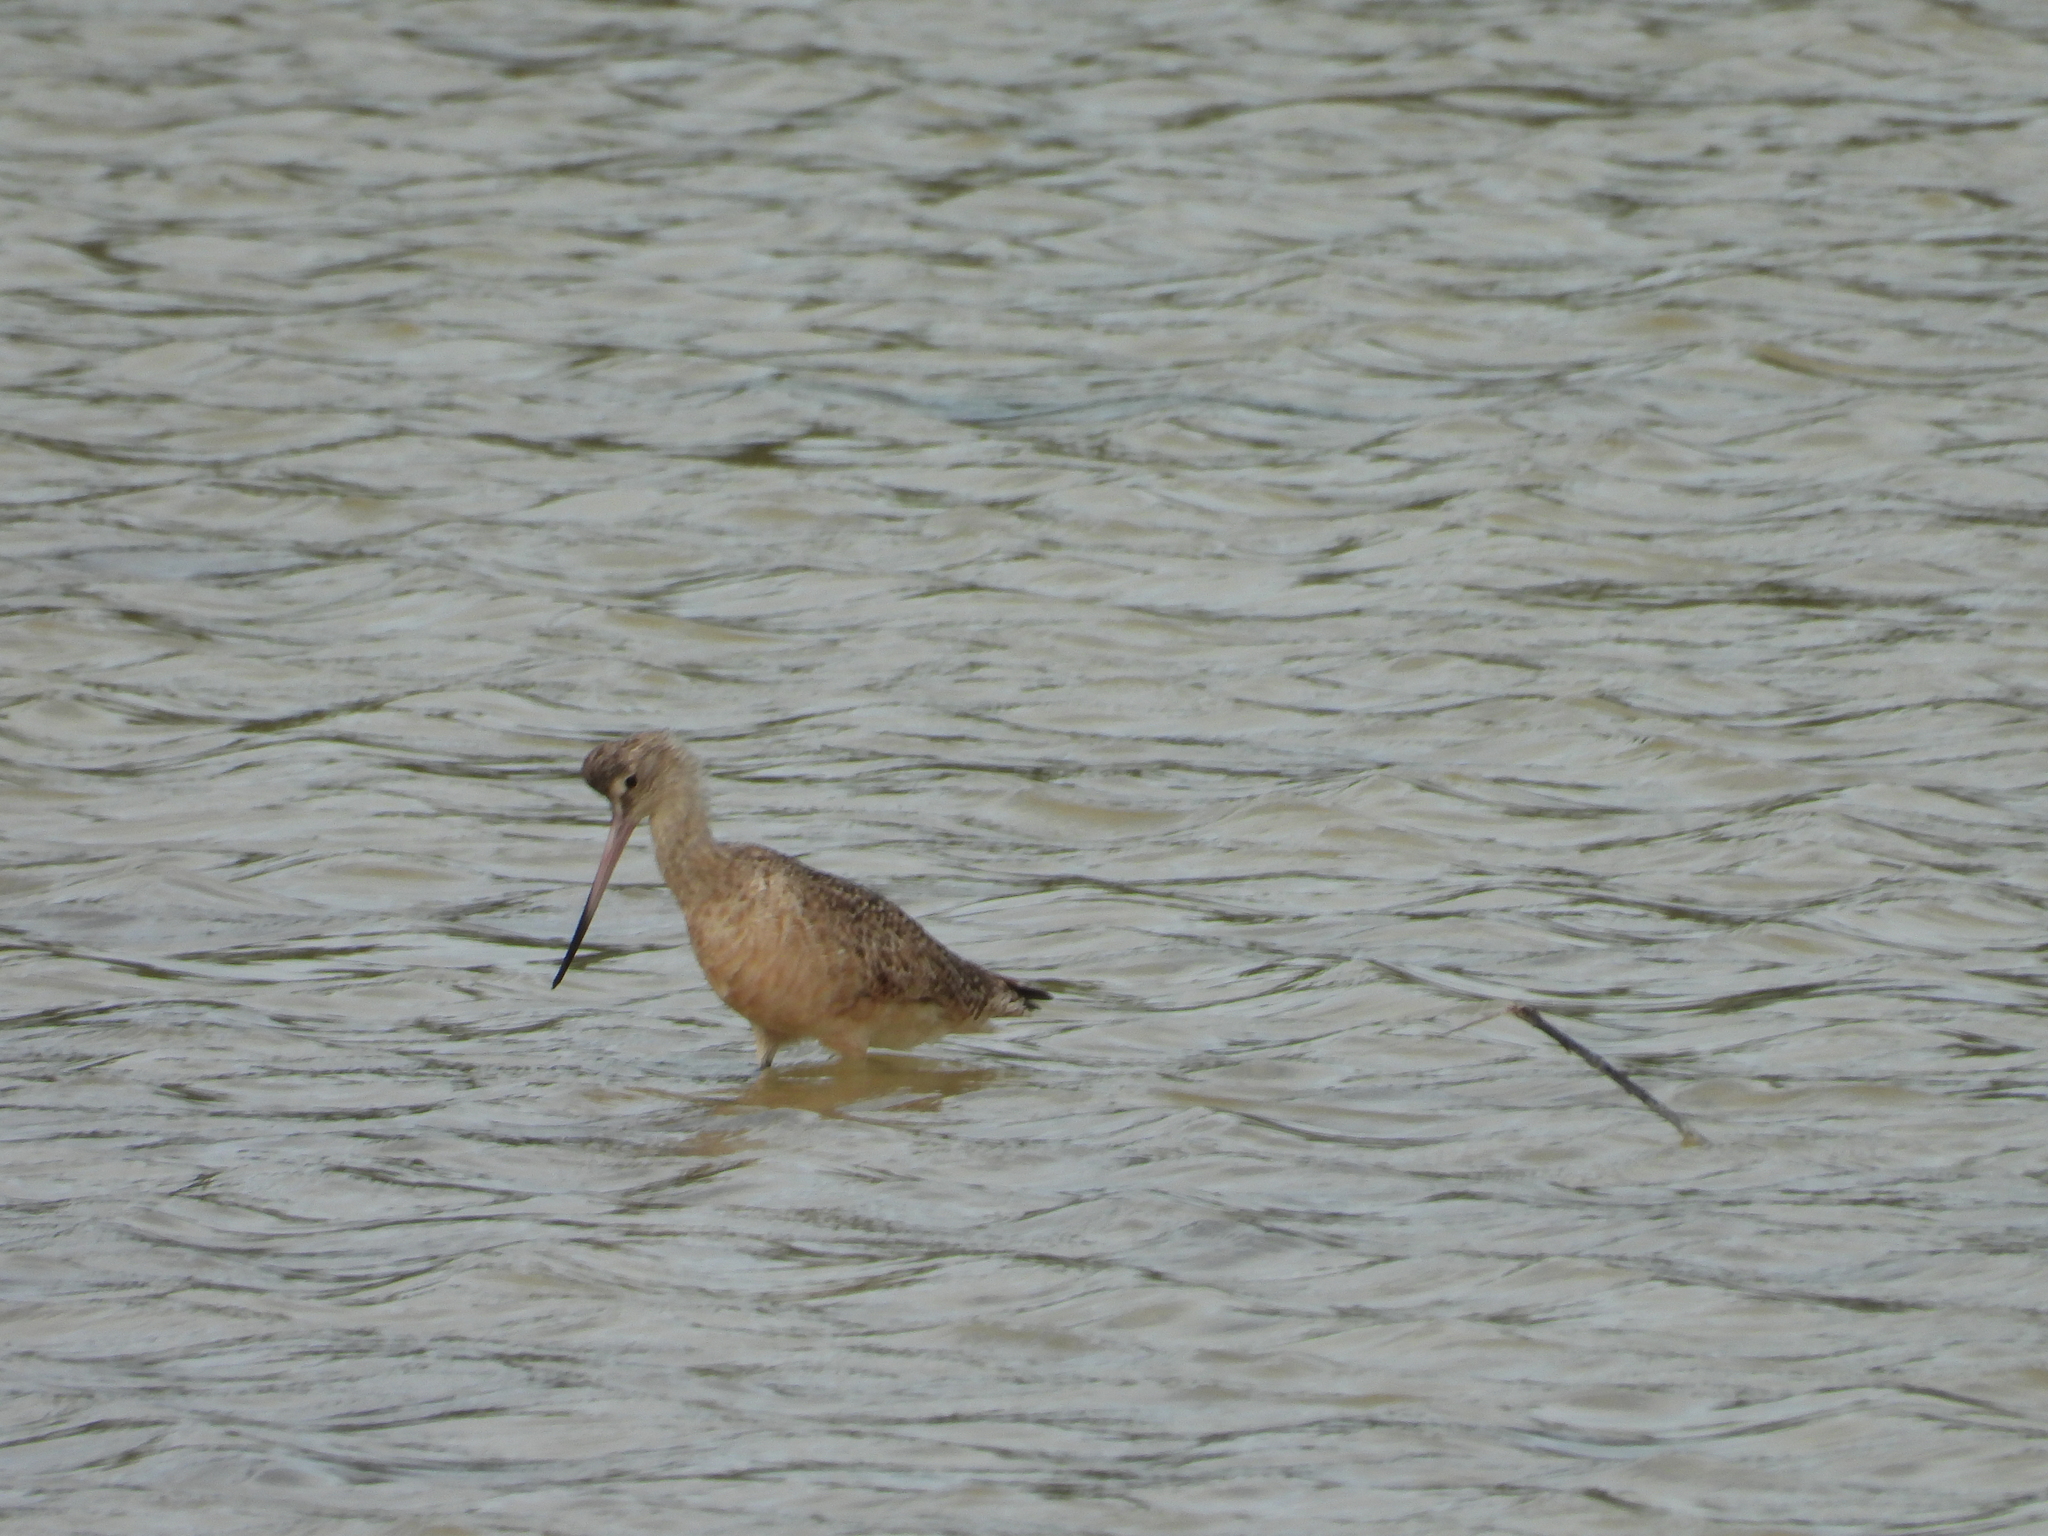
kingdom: Animalia
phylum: Chordata
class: Aves
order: Charadriiformes
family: Scolopacidae
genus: Limosa
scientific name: Limosa fedoa
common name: Marbled godwit
